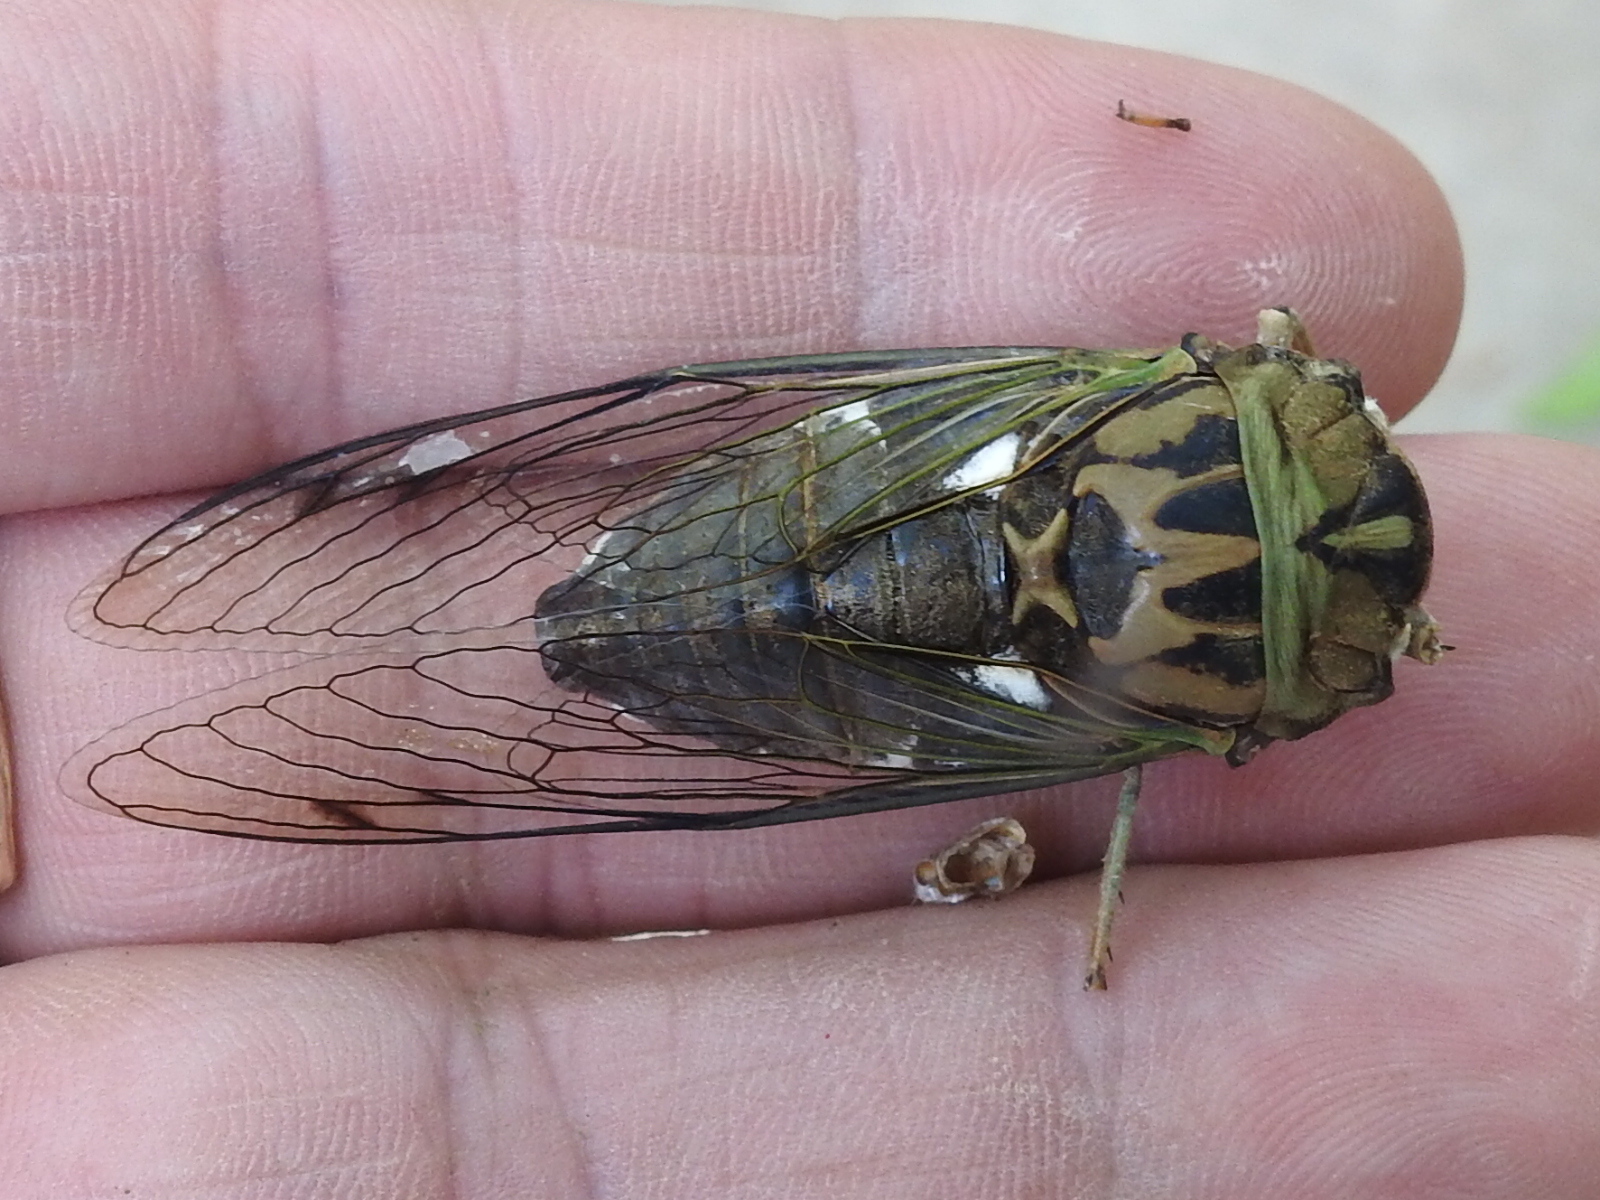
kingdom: Animalia
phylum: Arthropoda
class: Insecta
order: Hemiptera
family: Cicadidae
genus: Neotibicen
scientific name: Neotibicen pruinosus
